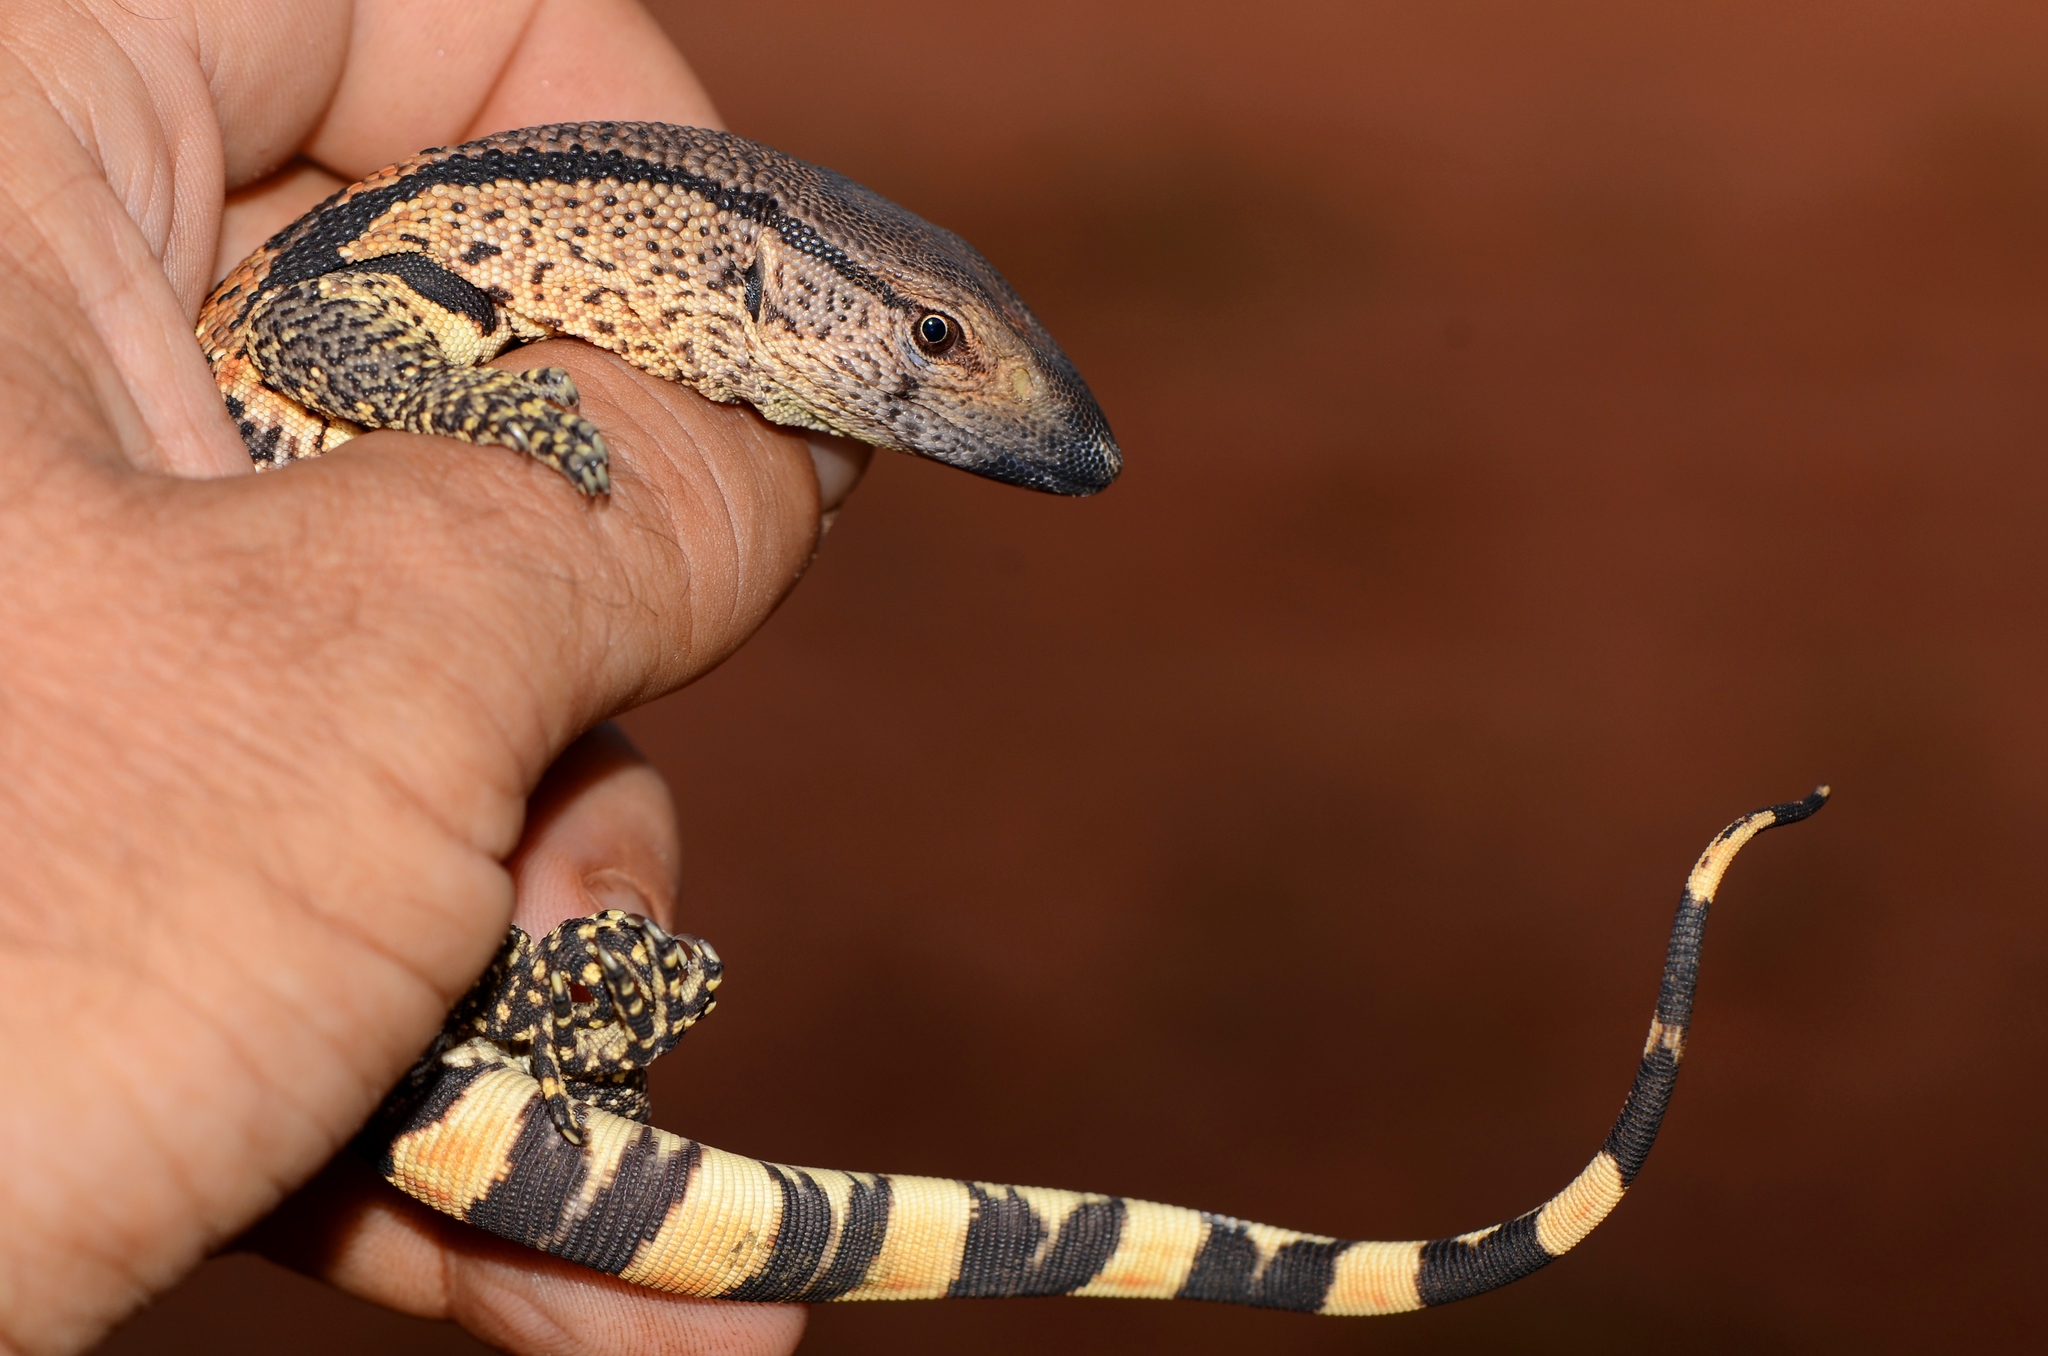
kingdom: Animalia
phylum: Chordata
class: Squamata
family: Varanidae
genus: Varanus
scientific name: Varanus albigularis
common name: White-throated monitor
